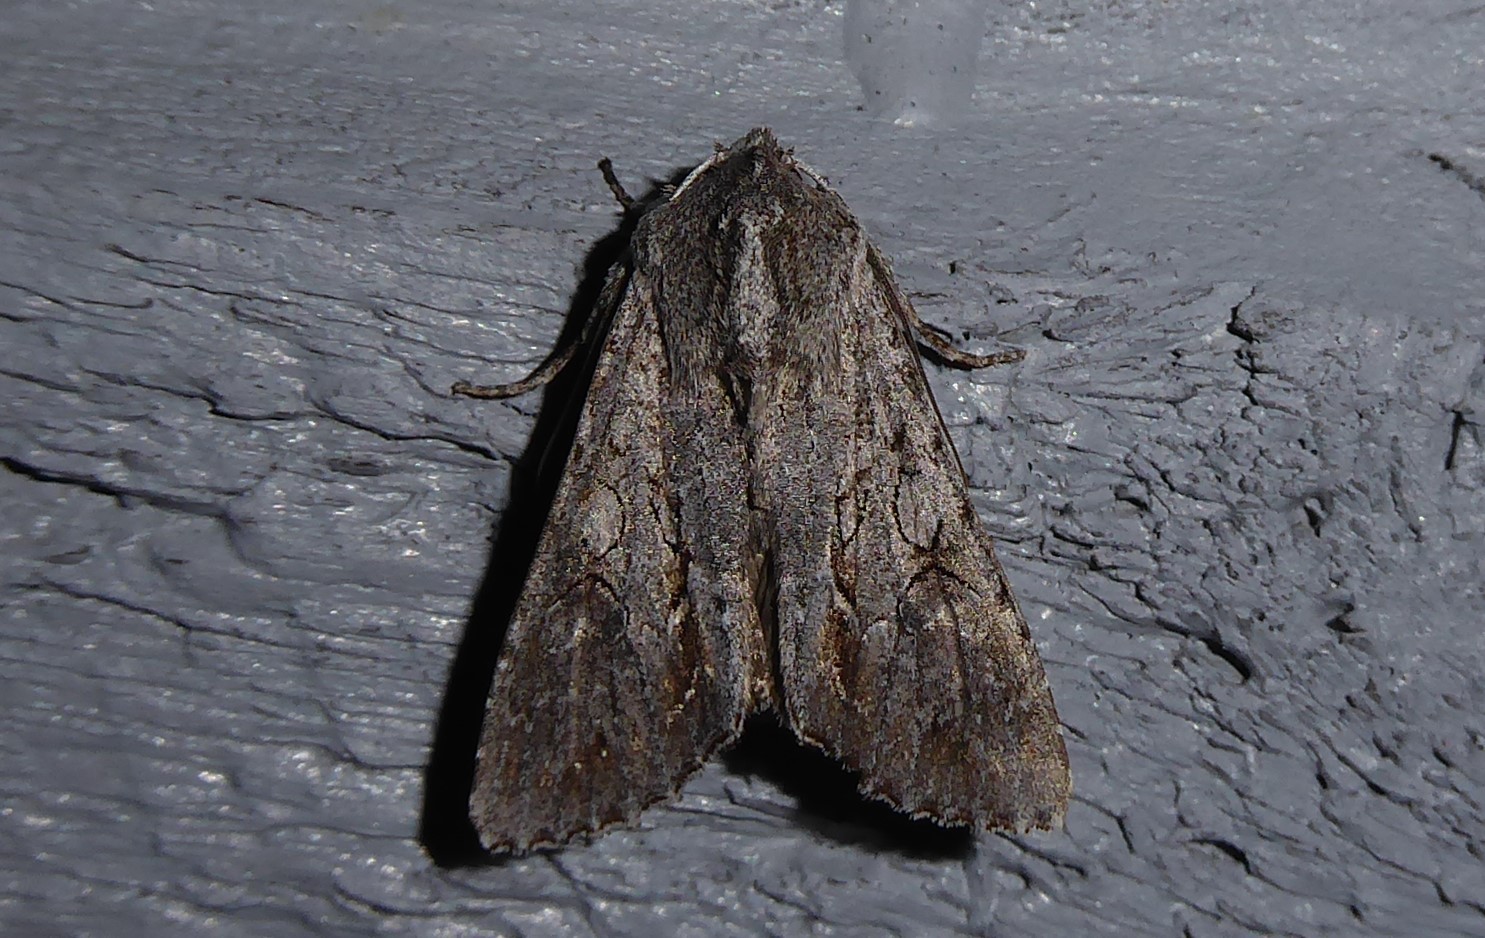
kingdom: Animalia
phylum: Arthropoda
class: Insecta
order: Lepidoptera
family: Noctuidae
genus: Ichneutica
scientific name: Ichneutica
